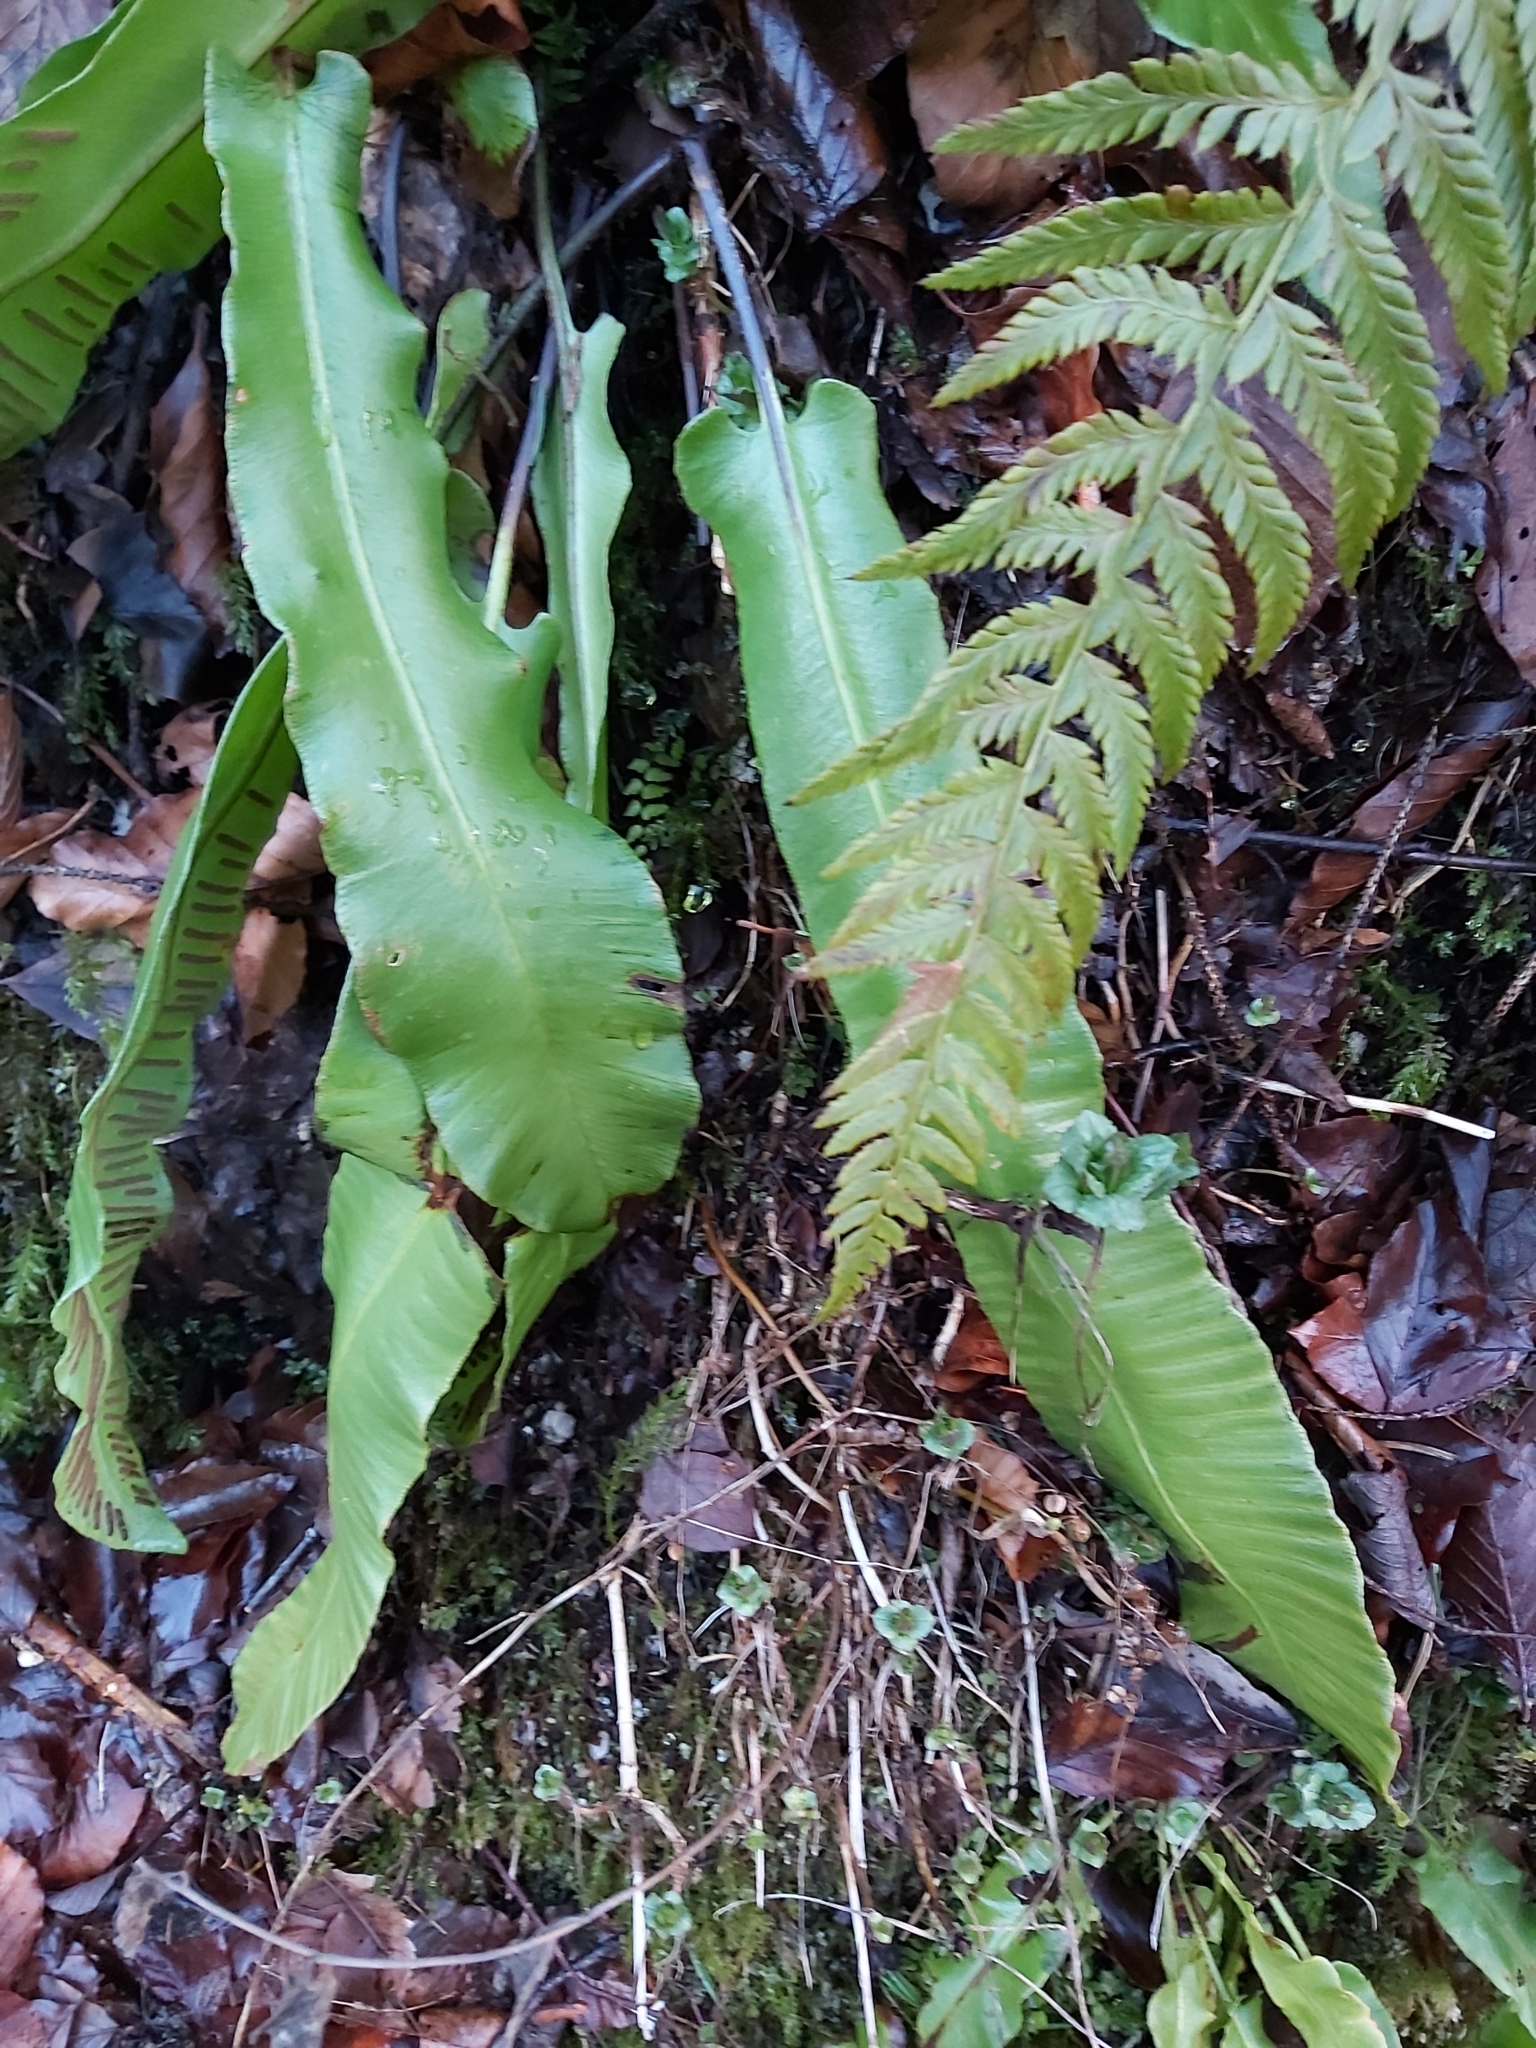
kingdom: Plantae
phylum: Tracheophyta
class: Polypodiopsida
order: Polypodiales
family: Aspleniaceae
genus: Asplenium
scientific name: Asplenium scolopendrium
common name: Hart's-tongue fern
